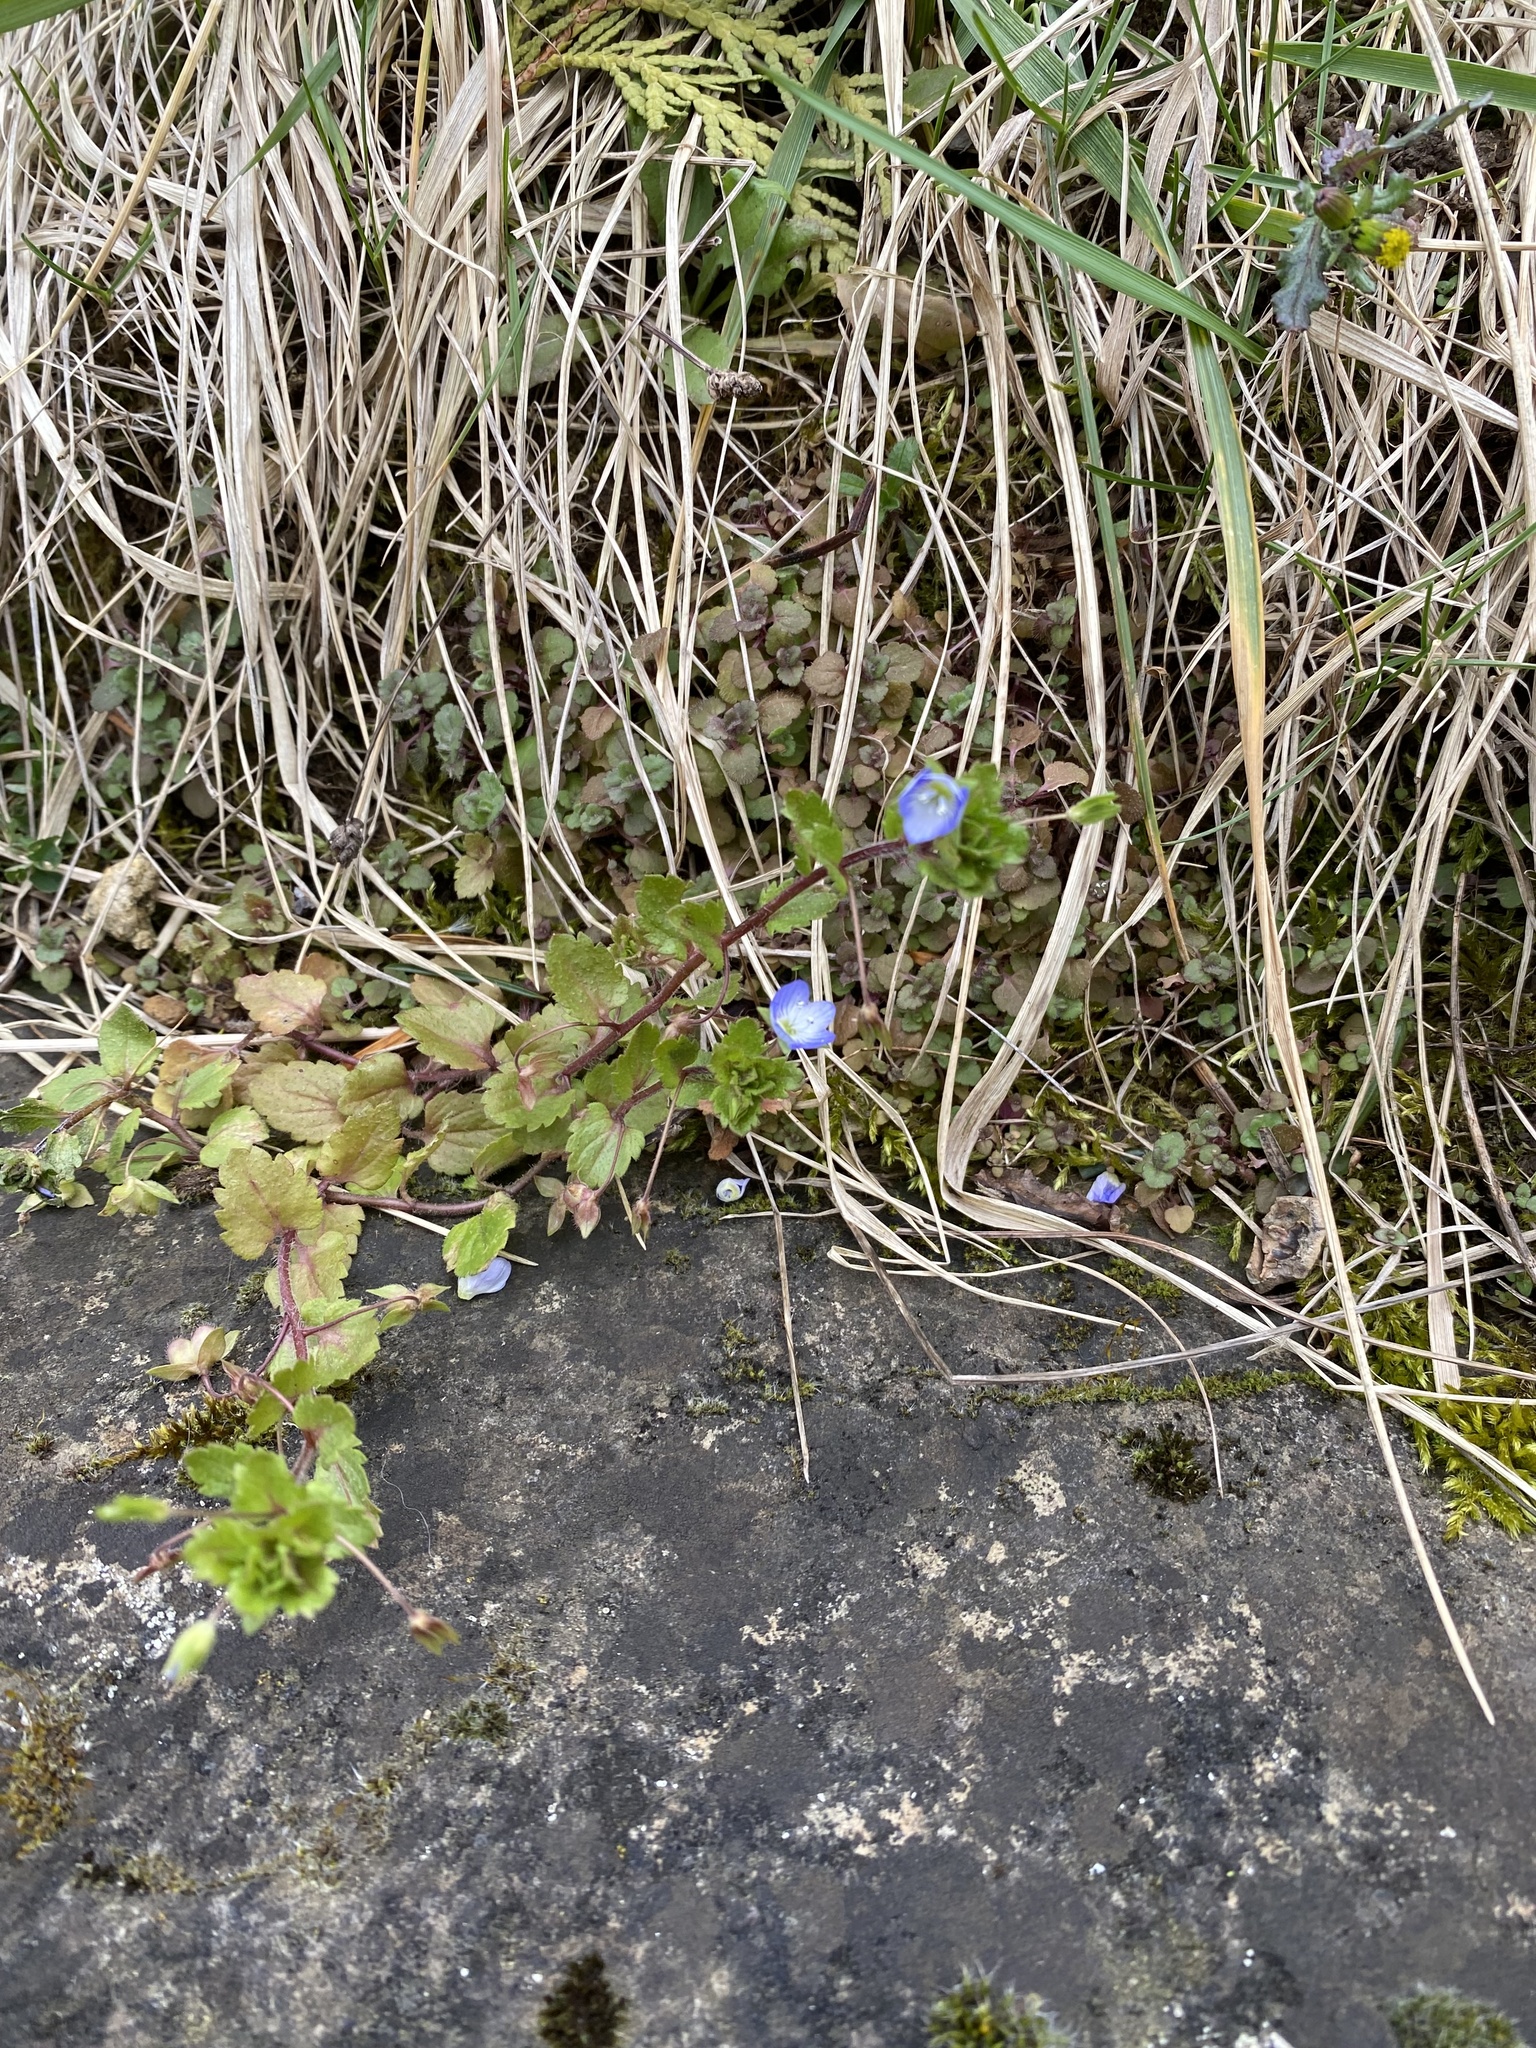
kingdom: Plantae
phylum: Tracheophyta
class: Magnoliopsida
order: Lamiales
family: Plantaginaceae
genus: Veronica
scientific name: Veronica persica
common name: Common field-speedwell
